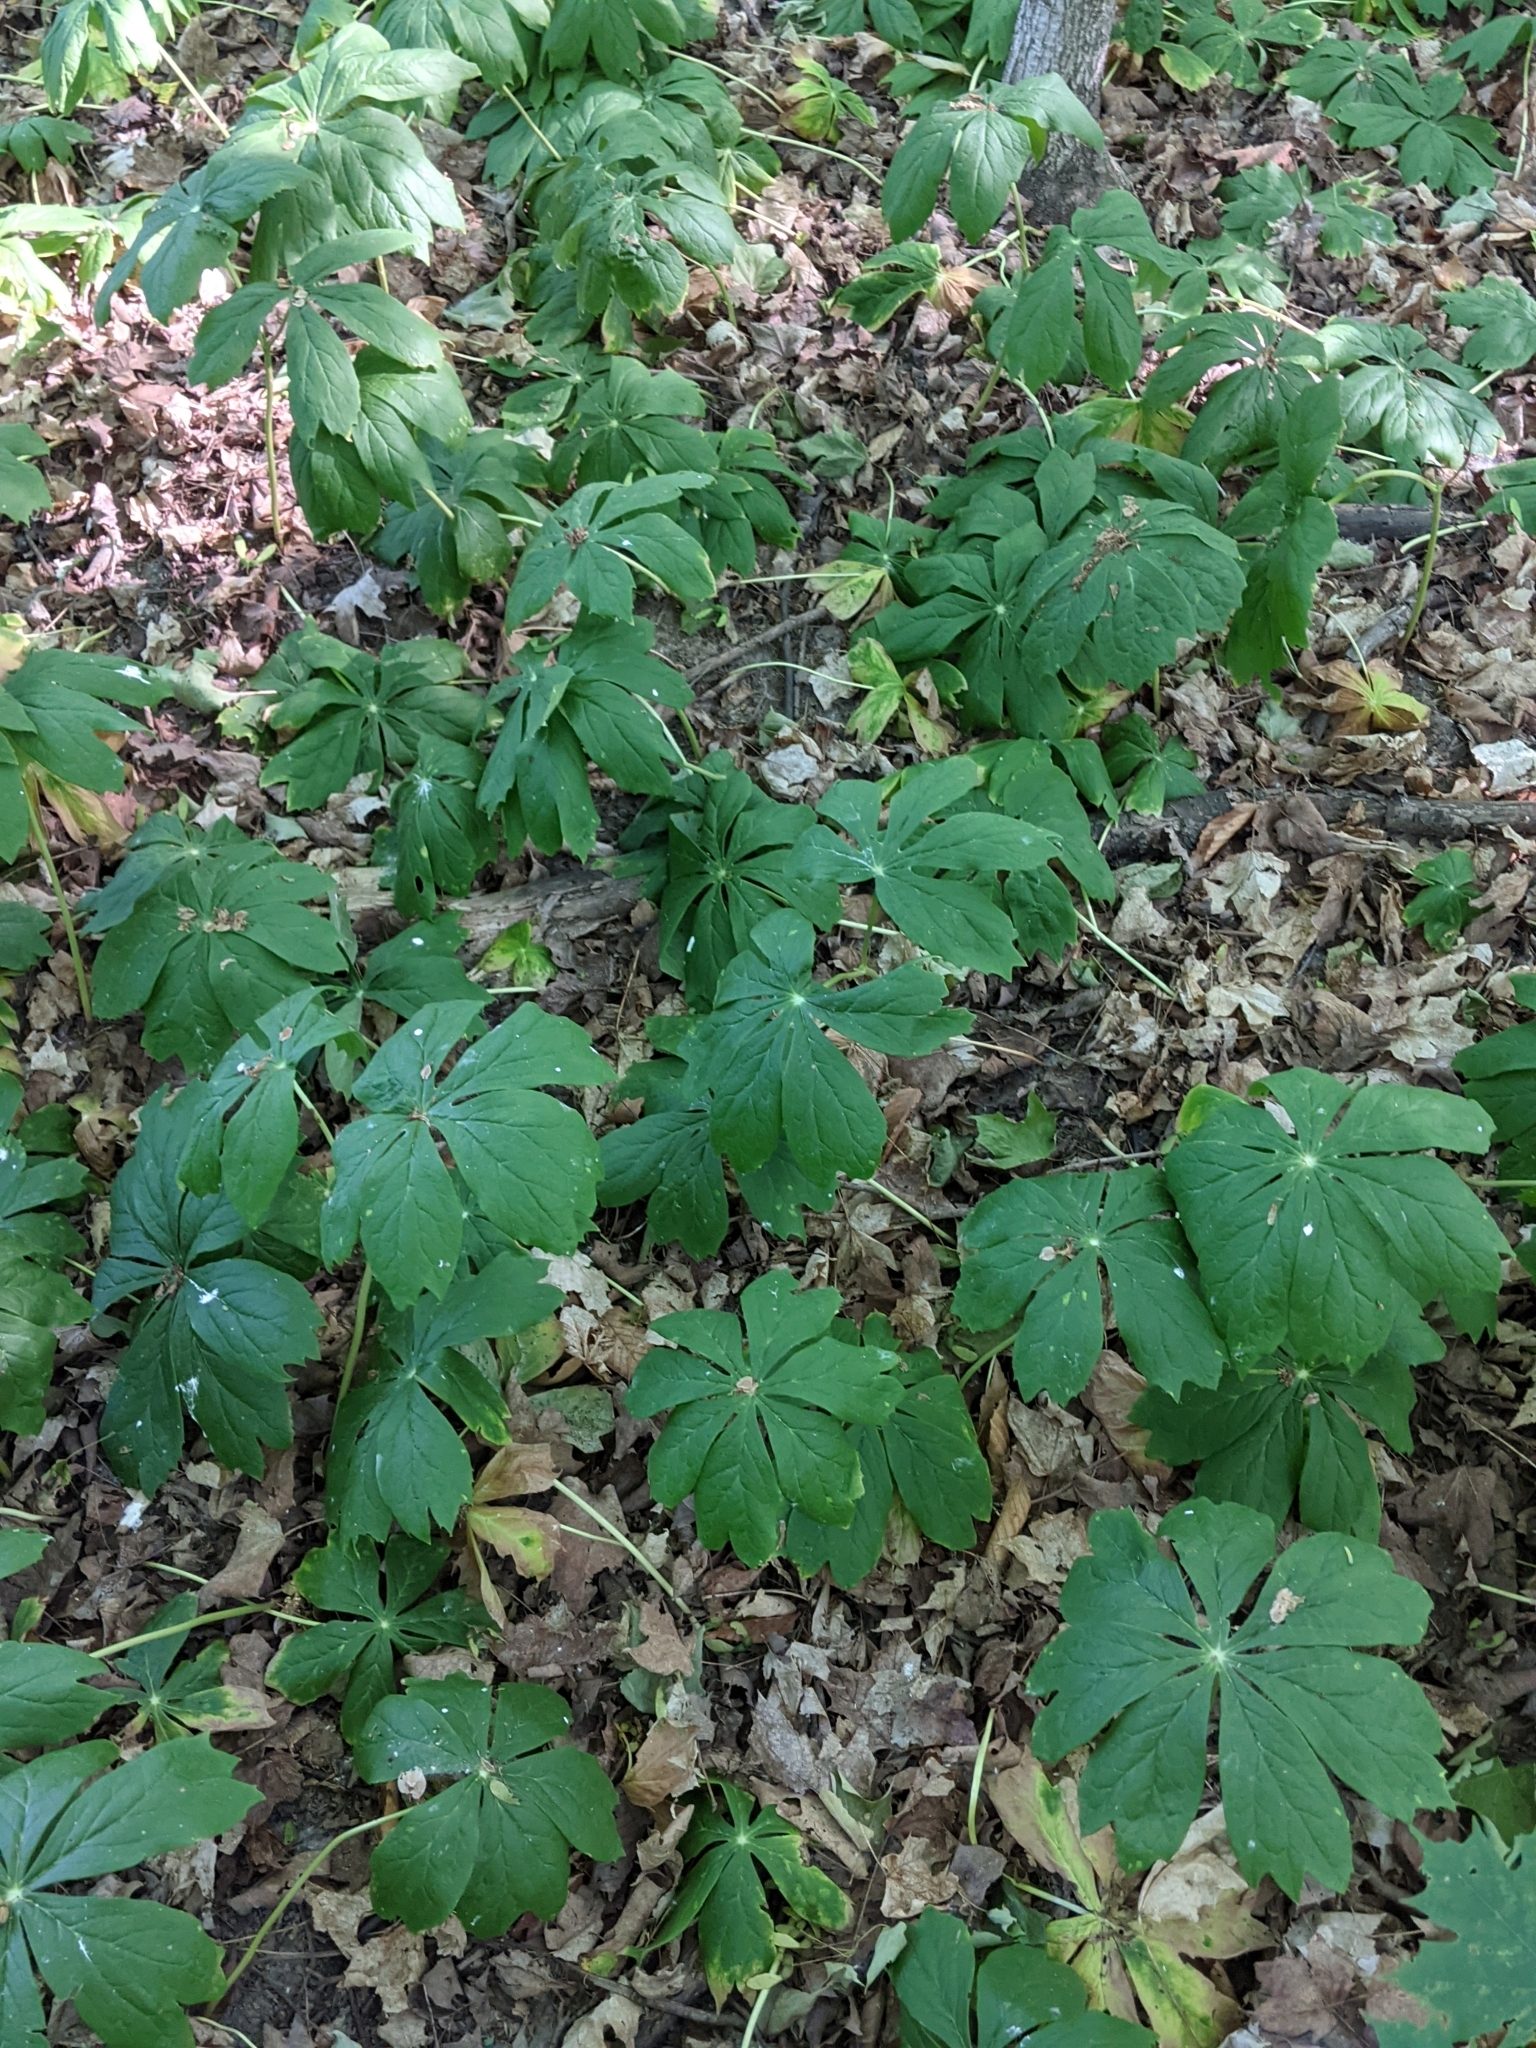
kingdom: Plantae
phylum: Tracheophyta
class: Magnoliopsida
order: Ranunculales
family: Berberidaceae
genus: Podophyllum
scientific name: Podophyllum peltatum
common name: Wild mandrake
